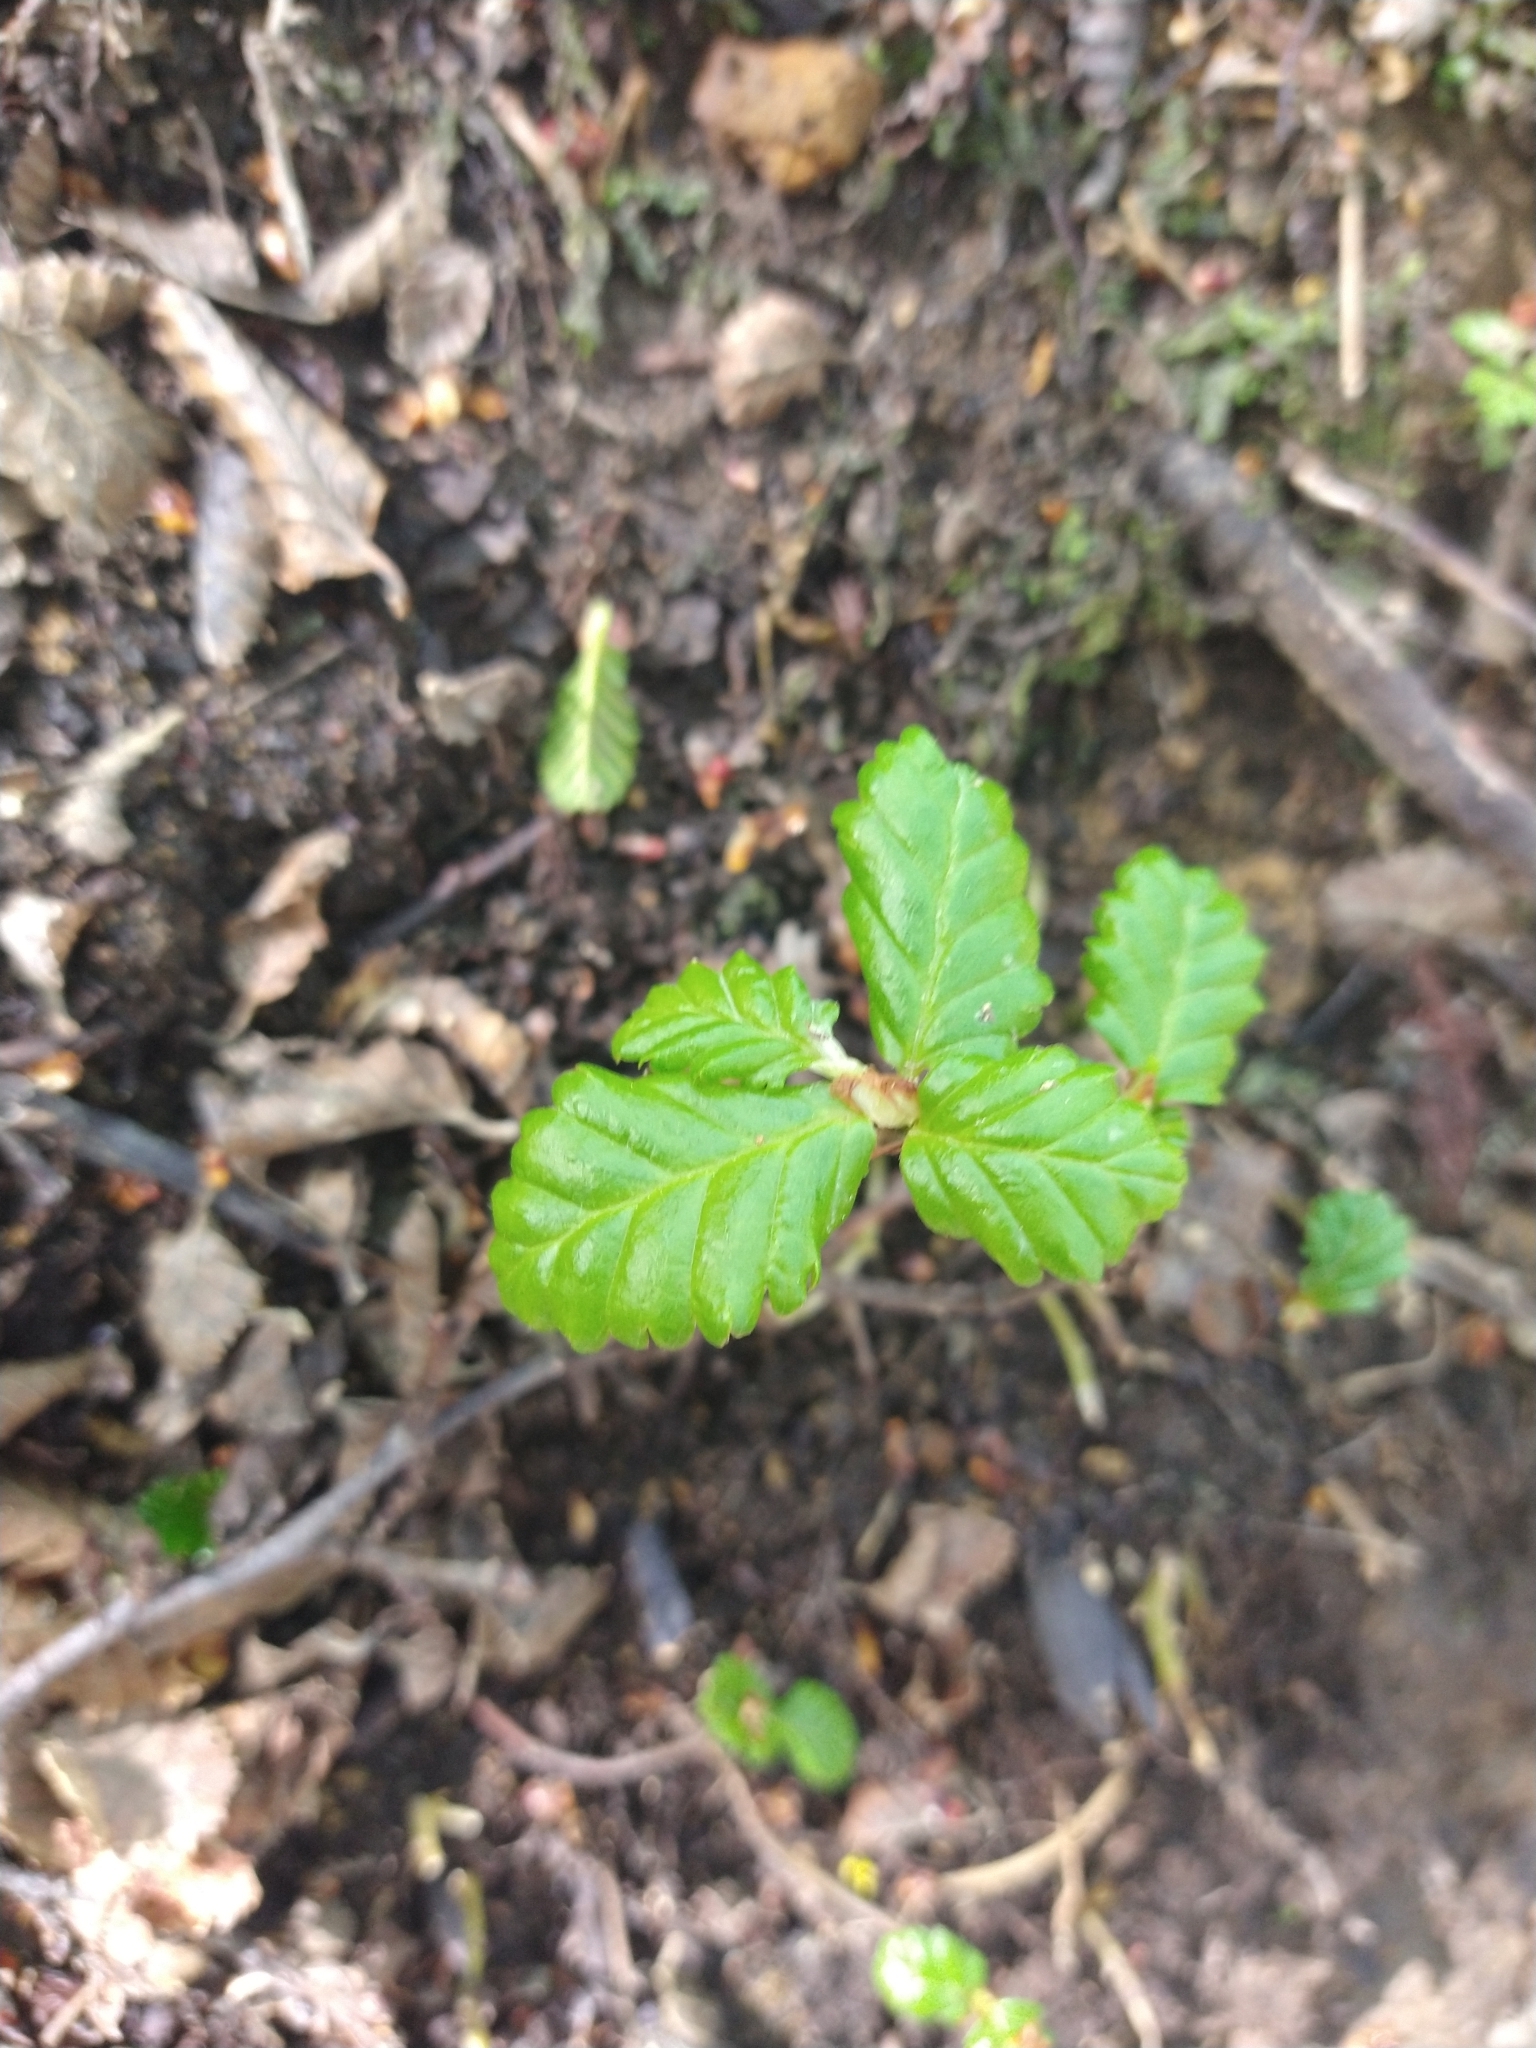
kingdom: Plantae
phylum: Tracheophyta
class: Magnoliopsida
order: Fagales
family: Nothofagaceae
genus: Nothofagus
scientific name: Nothofagus pumilio
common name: Lenga beech
